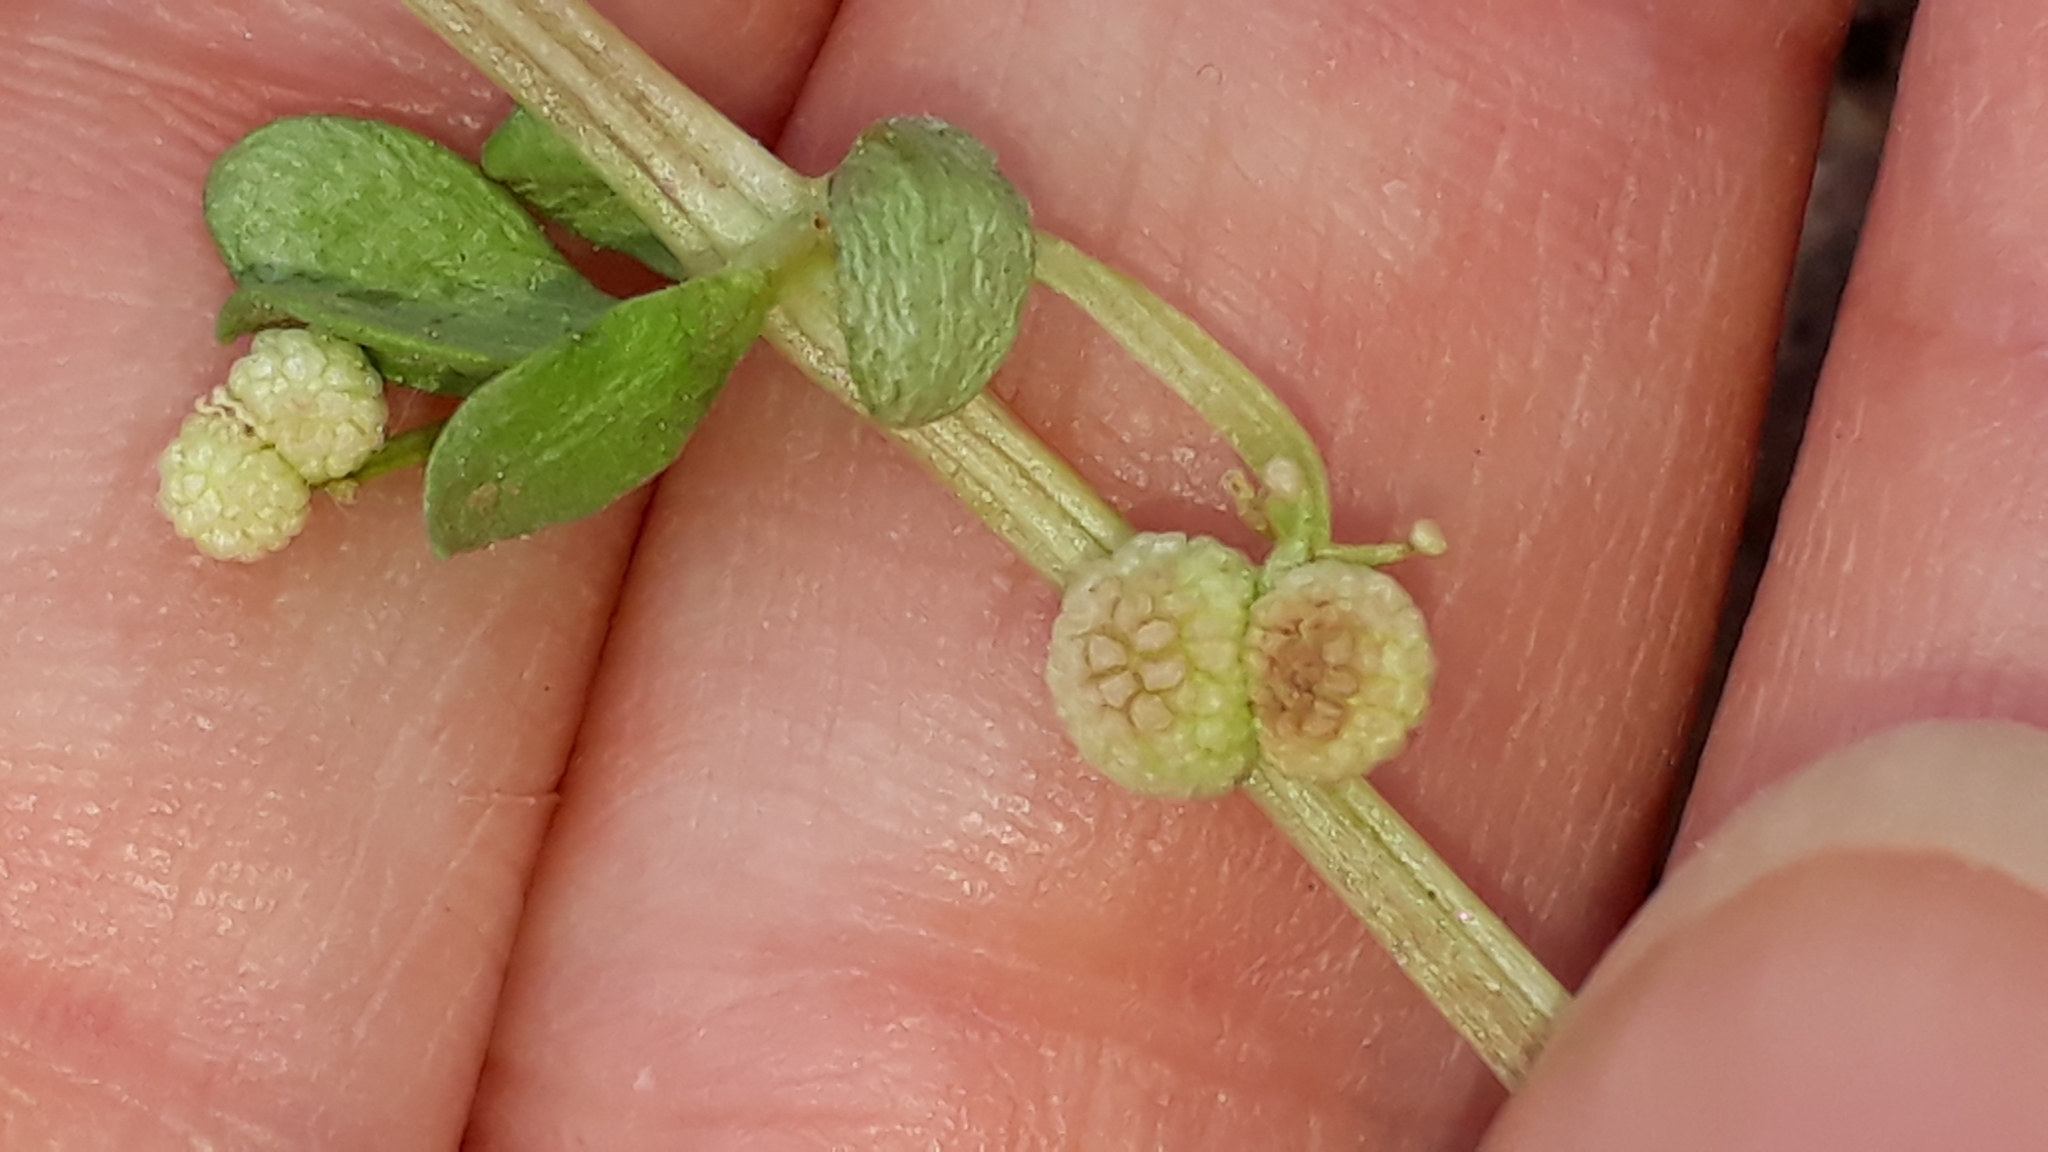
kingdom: Plantae
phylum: Tracheophyta
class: Magnoliopsida
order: Gentianales
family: Rubiaceae
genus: Galium
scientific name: Galium verrucosum
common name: Warty bedstraw
